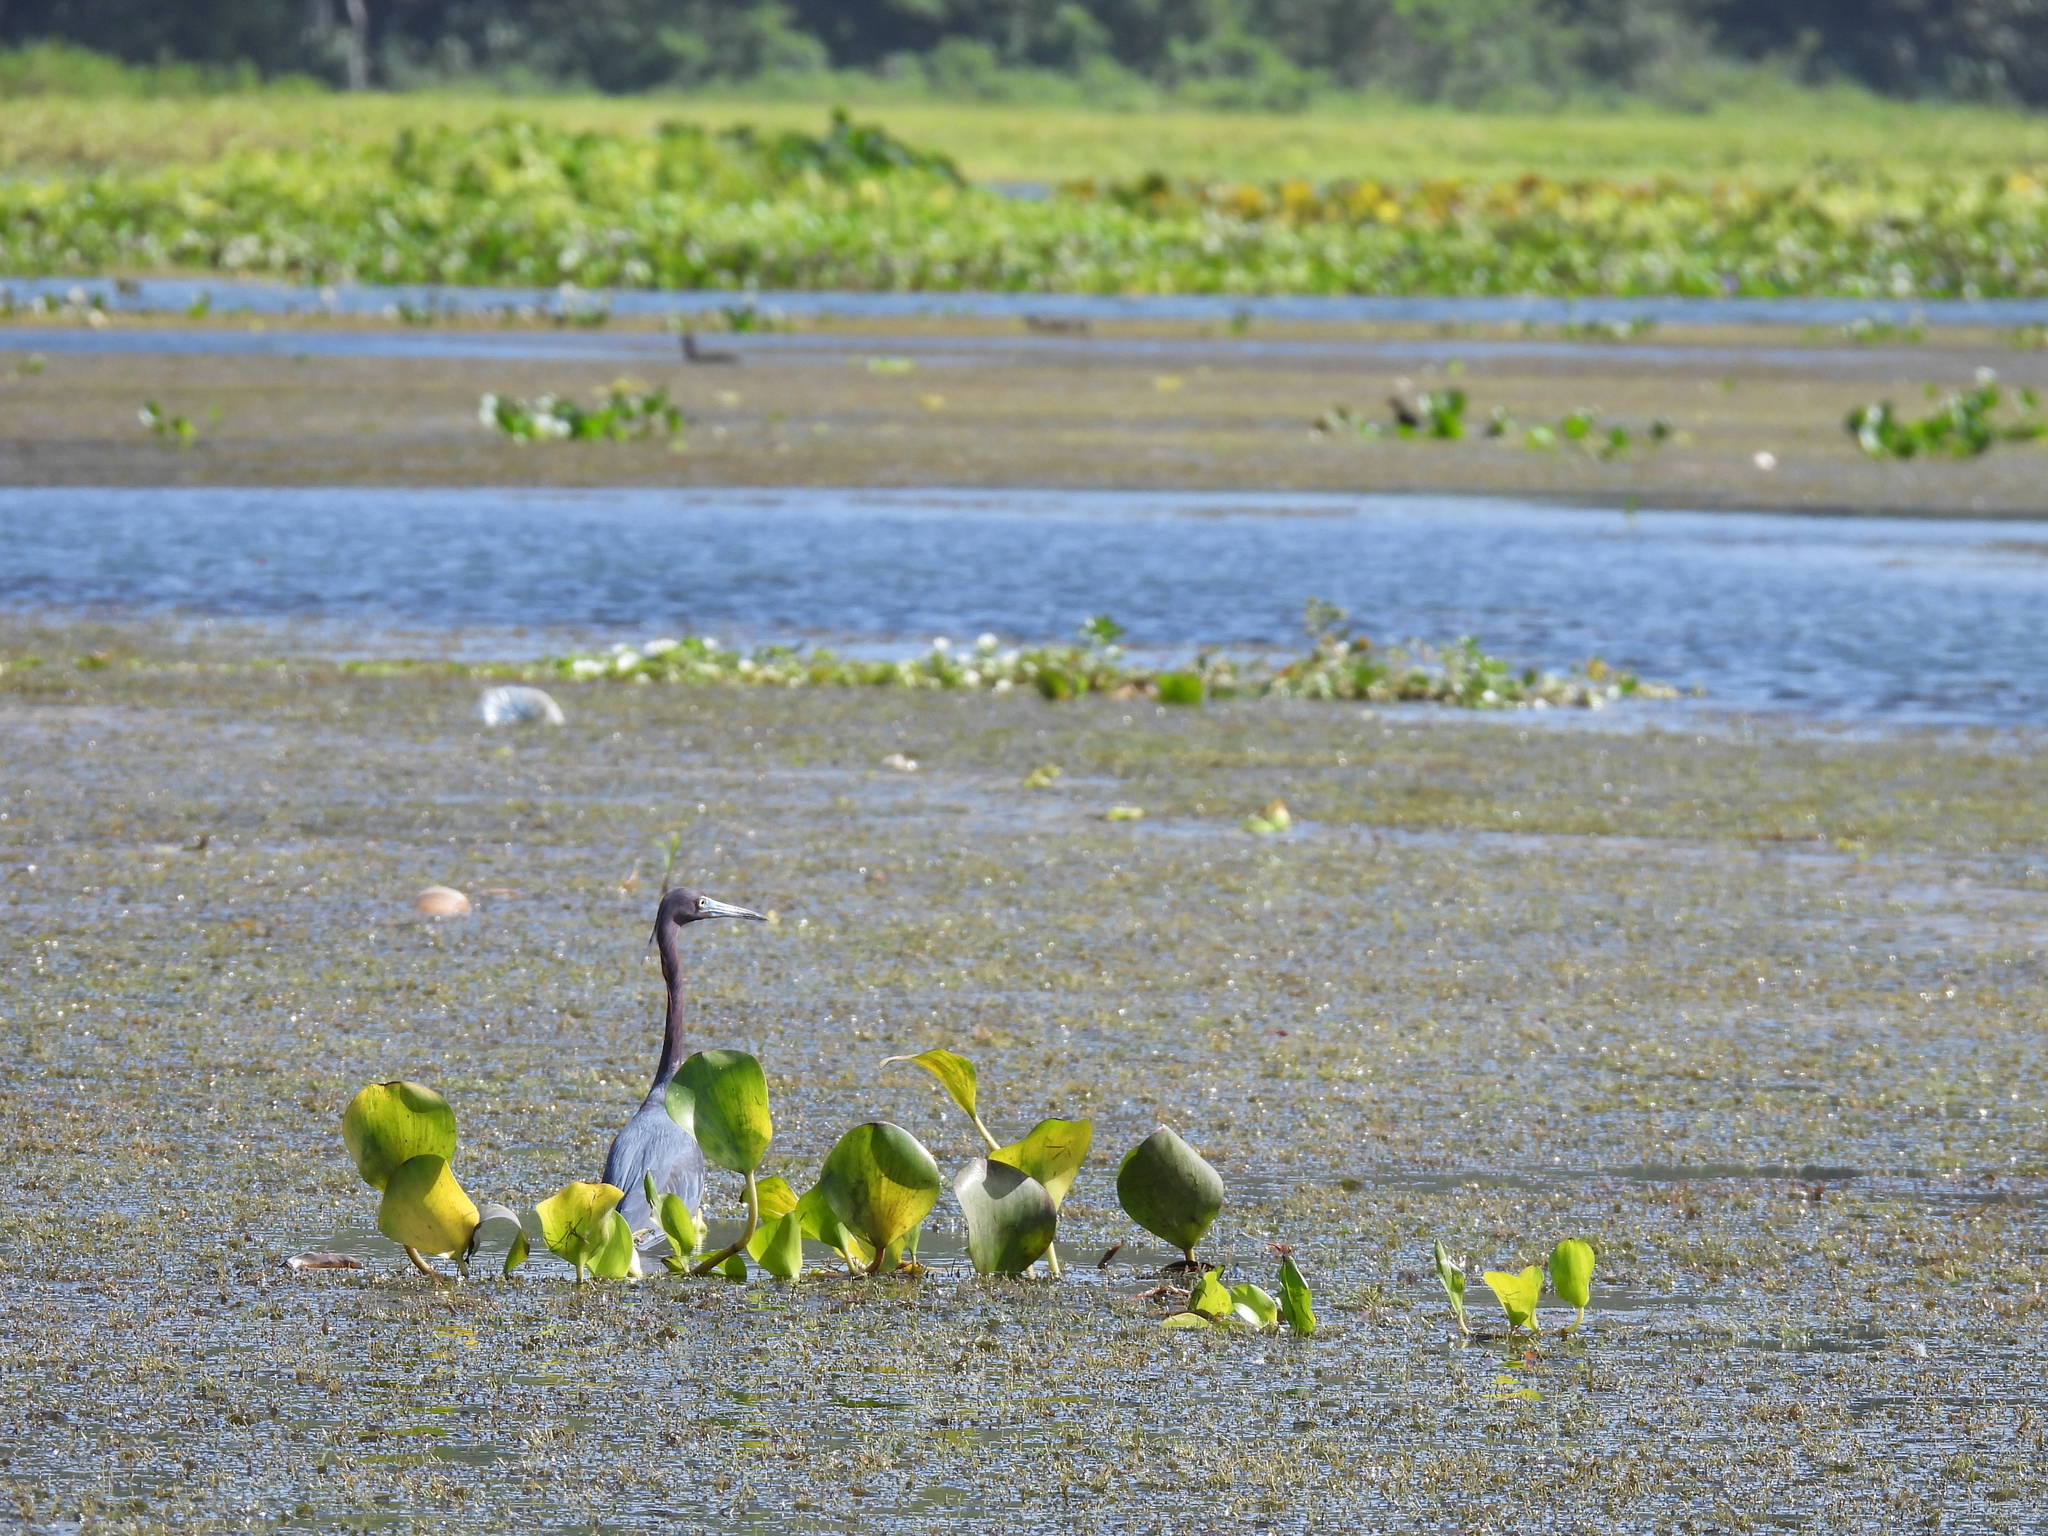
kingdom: Animalia
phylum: Chordata
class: Aves
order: Pelecaniformes
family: Ardeidae
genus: Egretta
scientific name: Egretta caerulea
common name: Little blue heron
